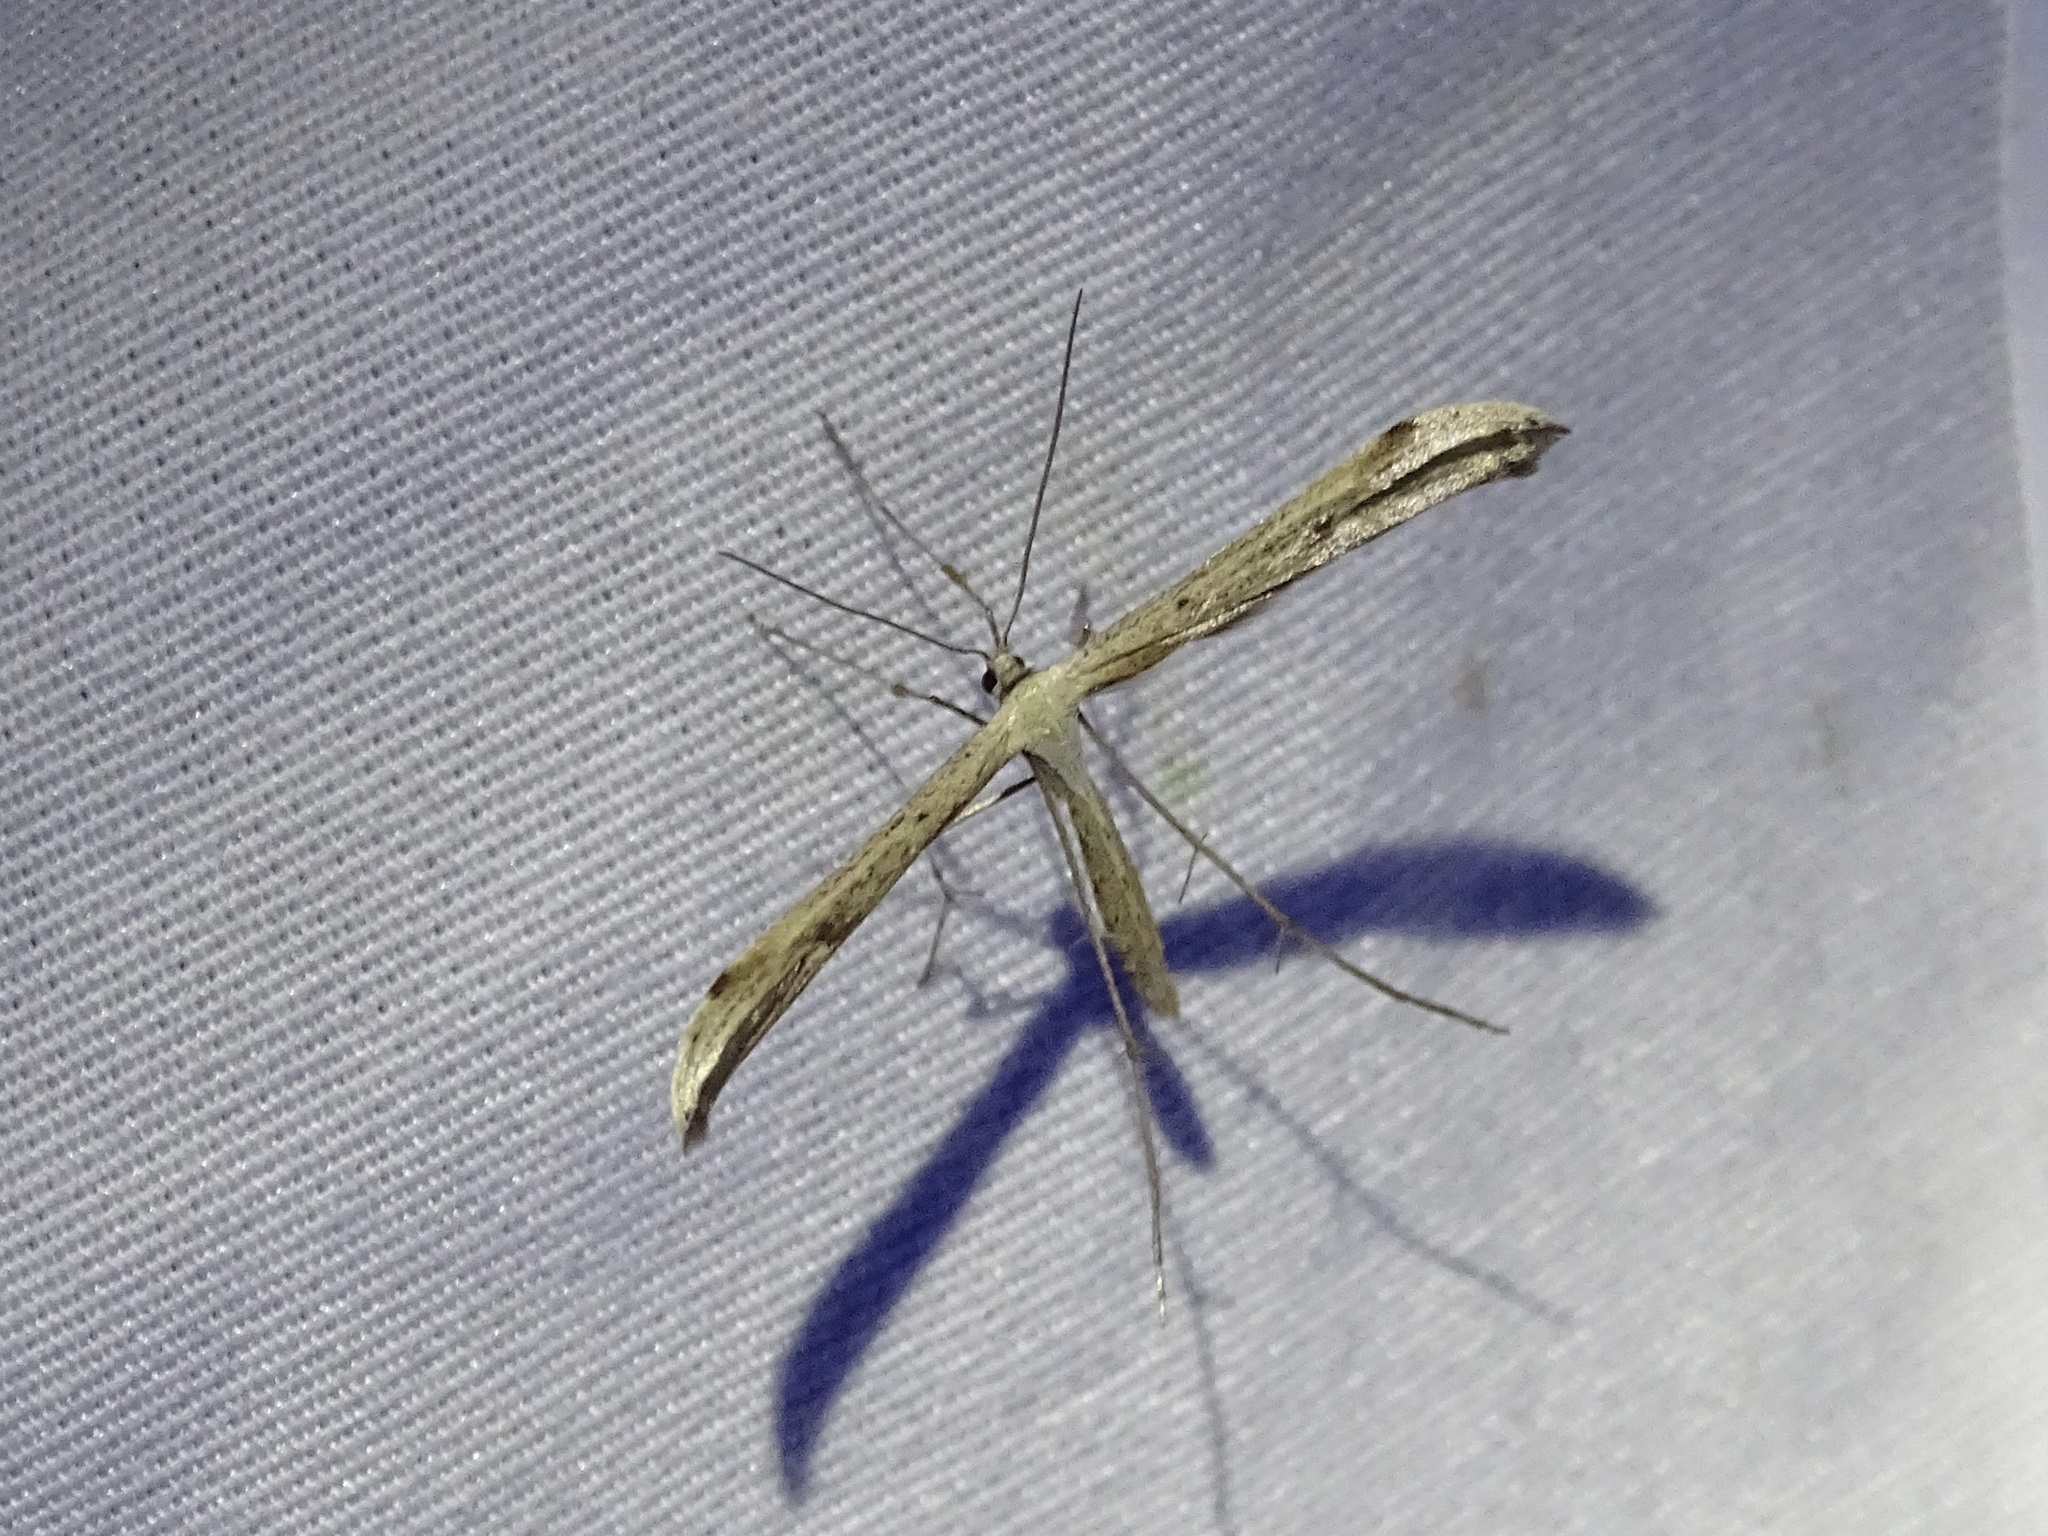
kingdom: Animalia
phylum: Arthropoda
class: Insecta
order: Lepidoptera
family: Pterophoridae
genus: Emmelina
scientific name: Emmelina monodactyla
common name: Common plume
